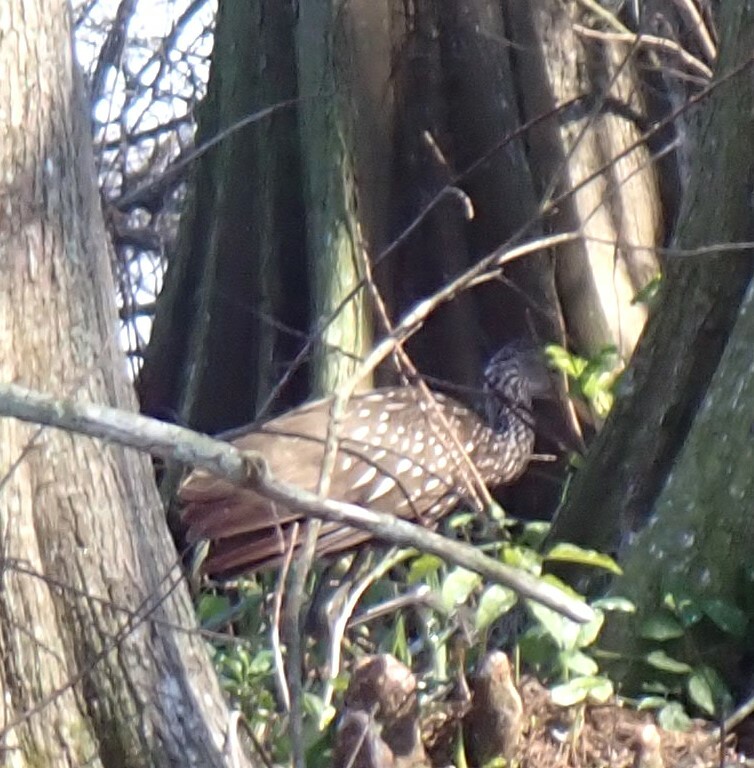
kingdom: Animalia
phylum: Chordata
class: Aves
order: Gruiformes
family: Aramidae
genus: Aramus
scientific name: Aramus guarauna
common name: Limpkin
